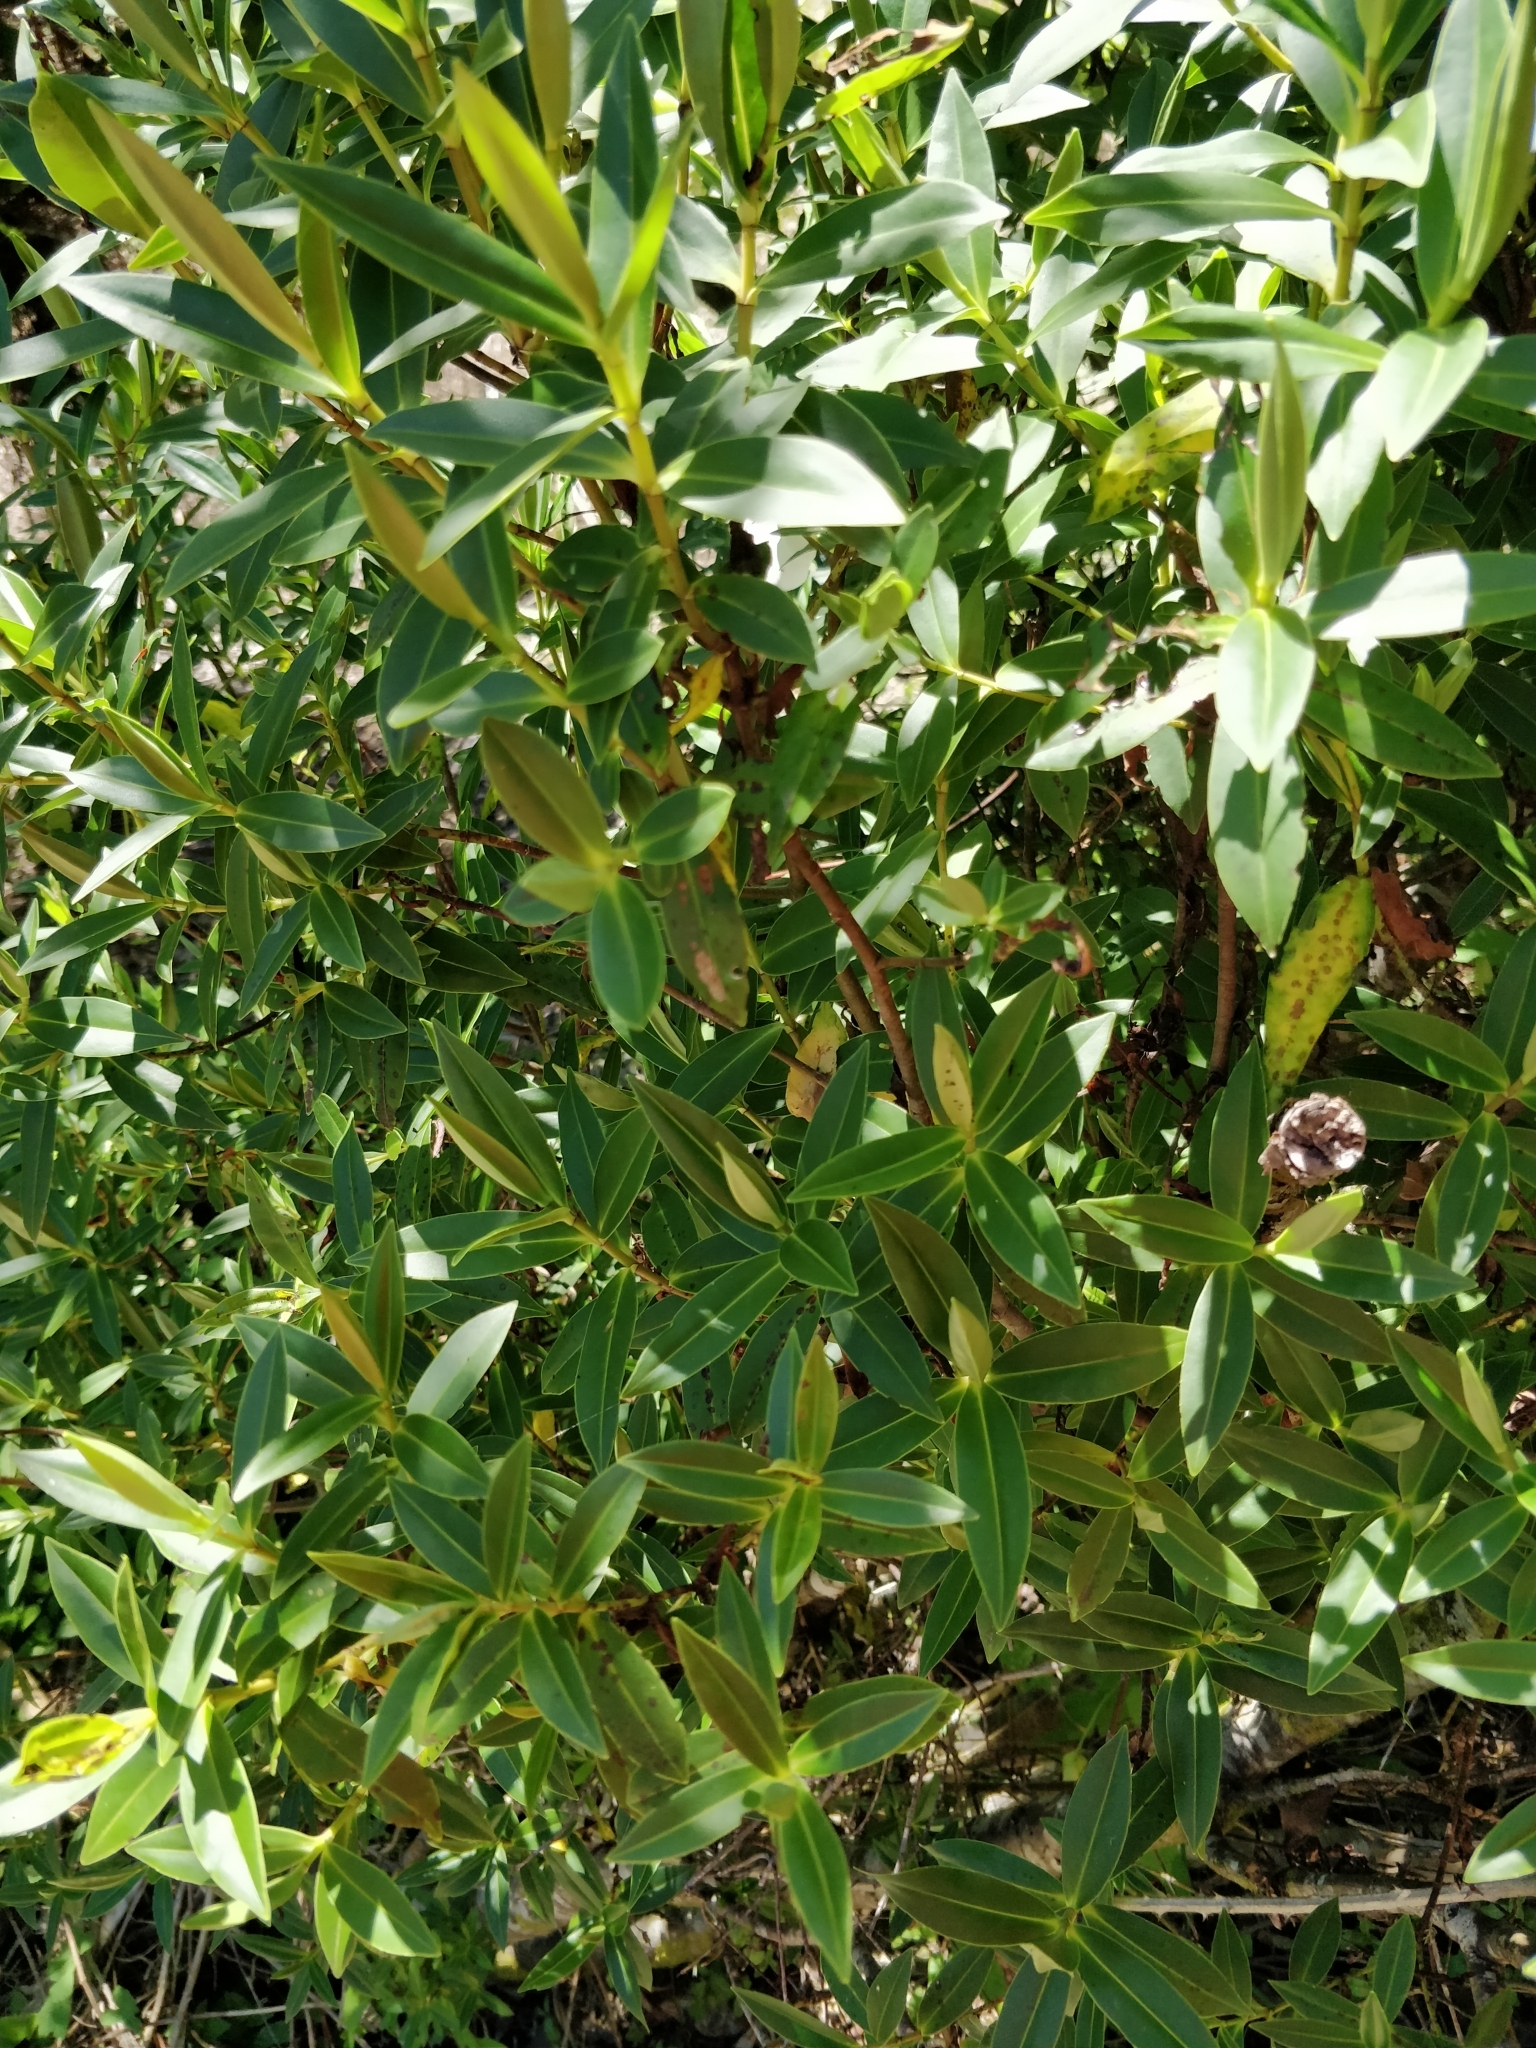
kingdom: Plantae
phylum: Tracheophyta
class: Magnoliopsida
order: Lamiales
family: Plantaginaceae
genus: Veronica
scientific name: Veronica salicifolia
